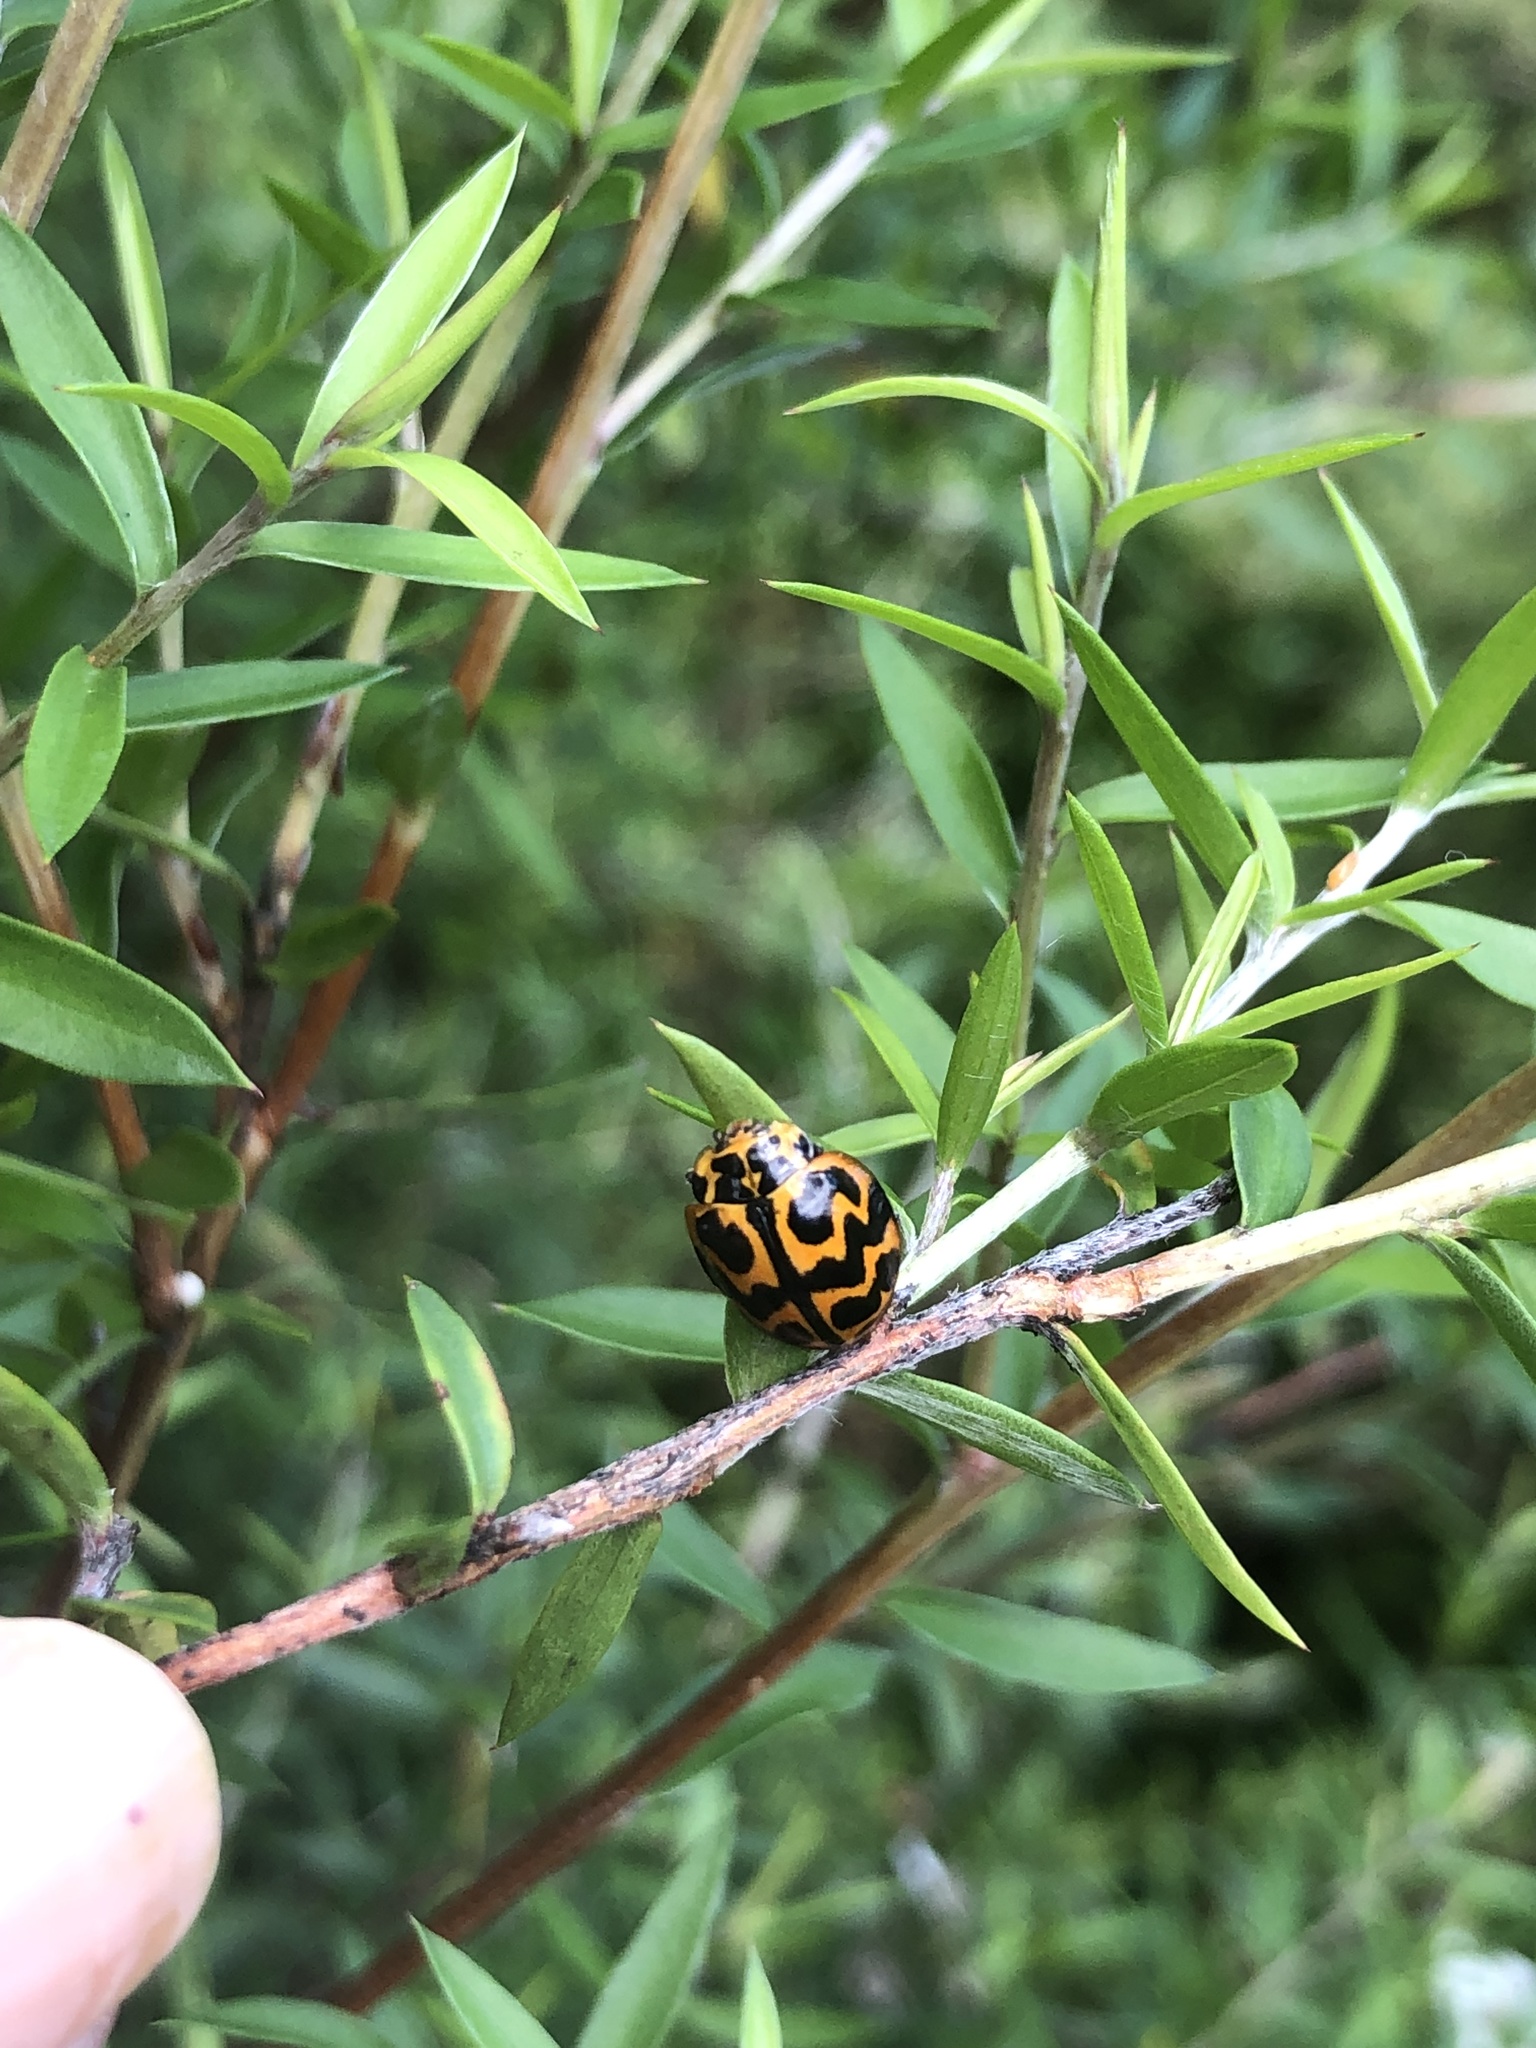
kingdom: Animalia
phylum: Arthropoda
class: Insecta
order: Coleoptera
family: Coccinellidae
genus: Cleobora
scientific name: Cleobora
